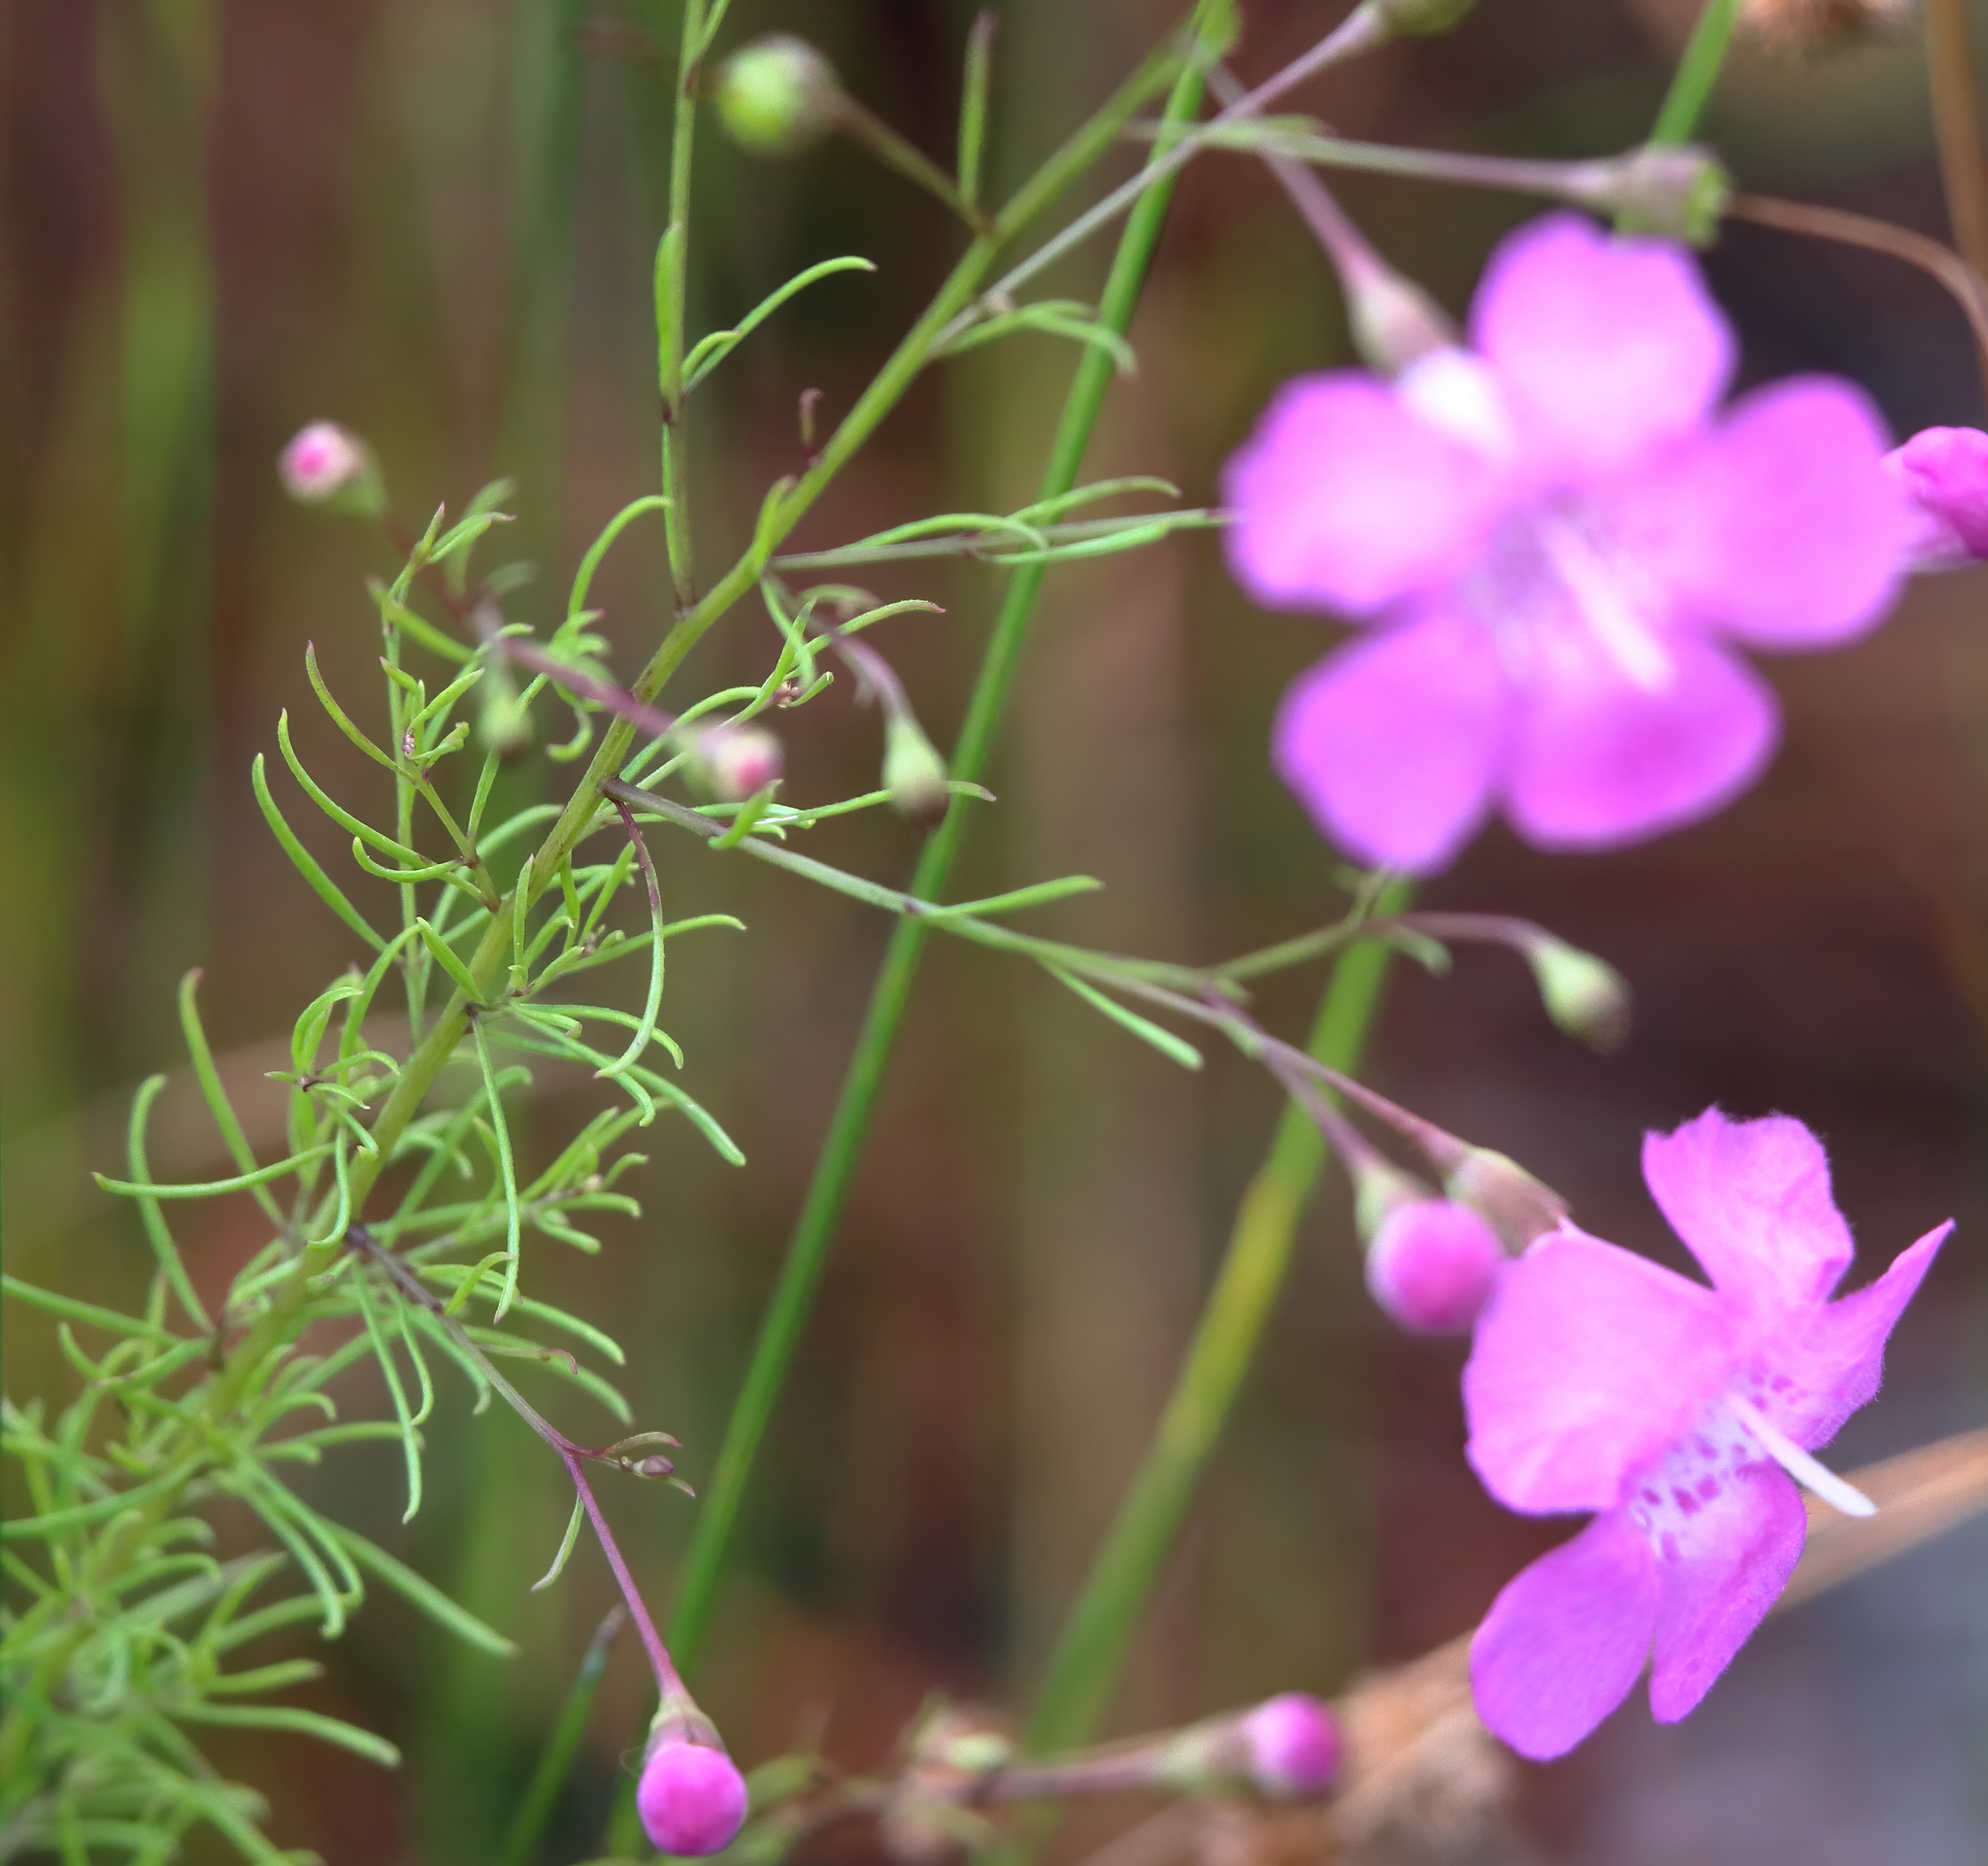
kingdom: Plantae
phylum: Tracheophyta
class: Magnoliopsida
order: Lamiales
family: Orobanchaceae
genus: Agalinis
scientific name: Agalinis filifolia
